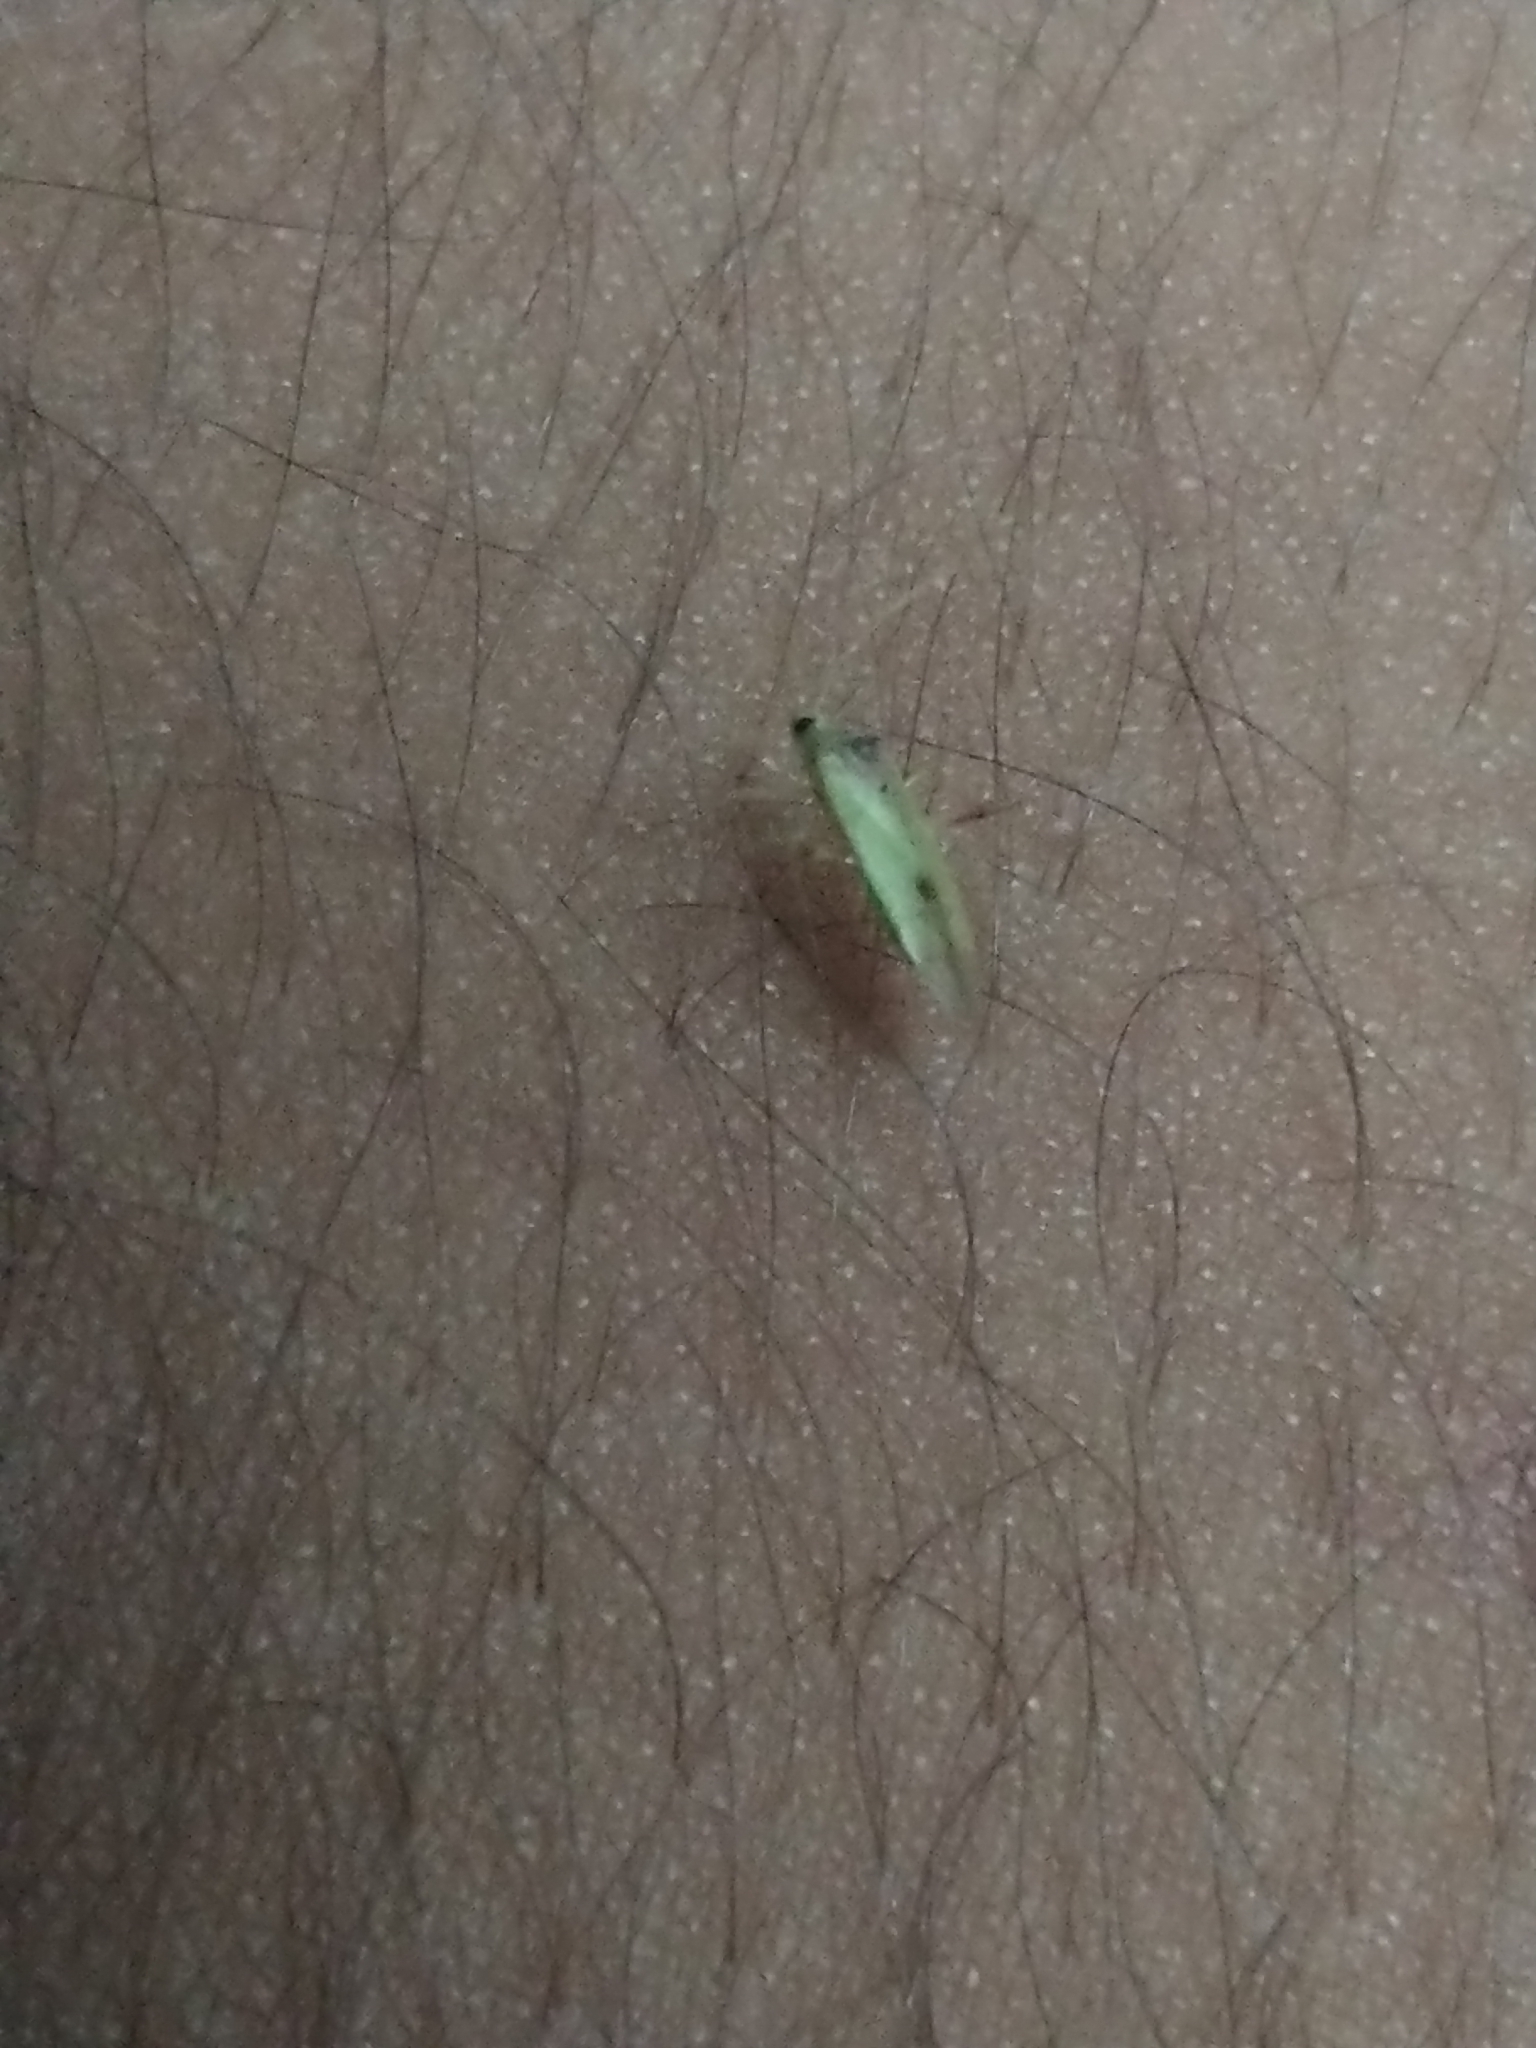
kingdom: Animalia
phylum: Arthropoda
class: Insecta
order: Hemiptera
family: Miridae
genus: Creontiades
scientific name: Creontiades pacificus
